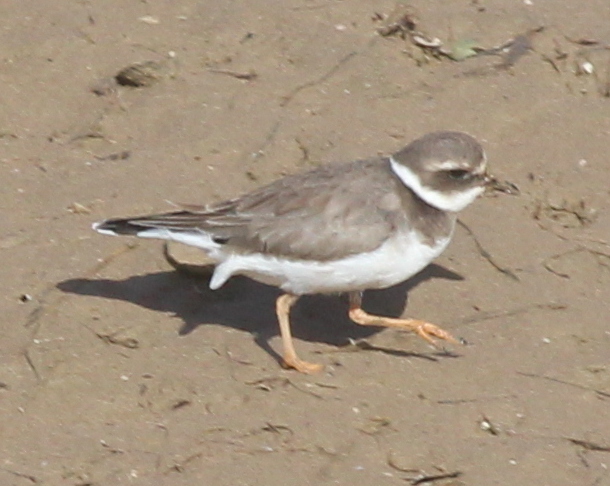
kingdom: Animalia
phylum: Chordata
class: Aves
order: Charadriiformes
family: Charadriidae
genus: Charadrius
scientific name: Charadrius hiaticula
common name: Common ringed plover
